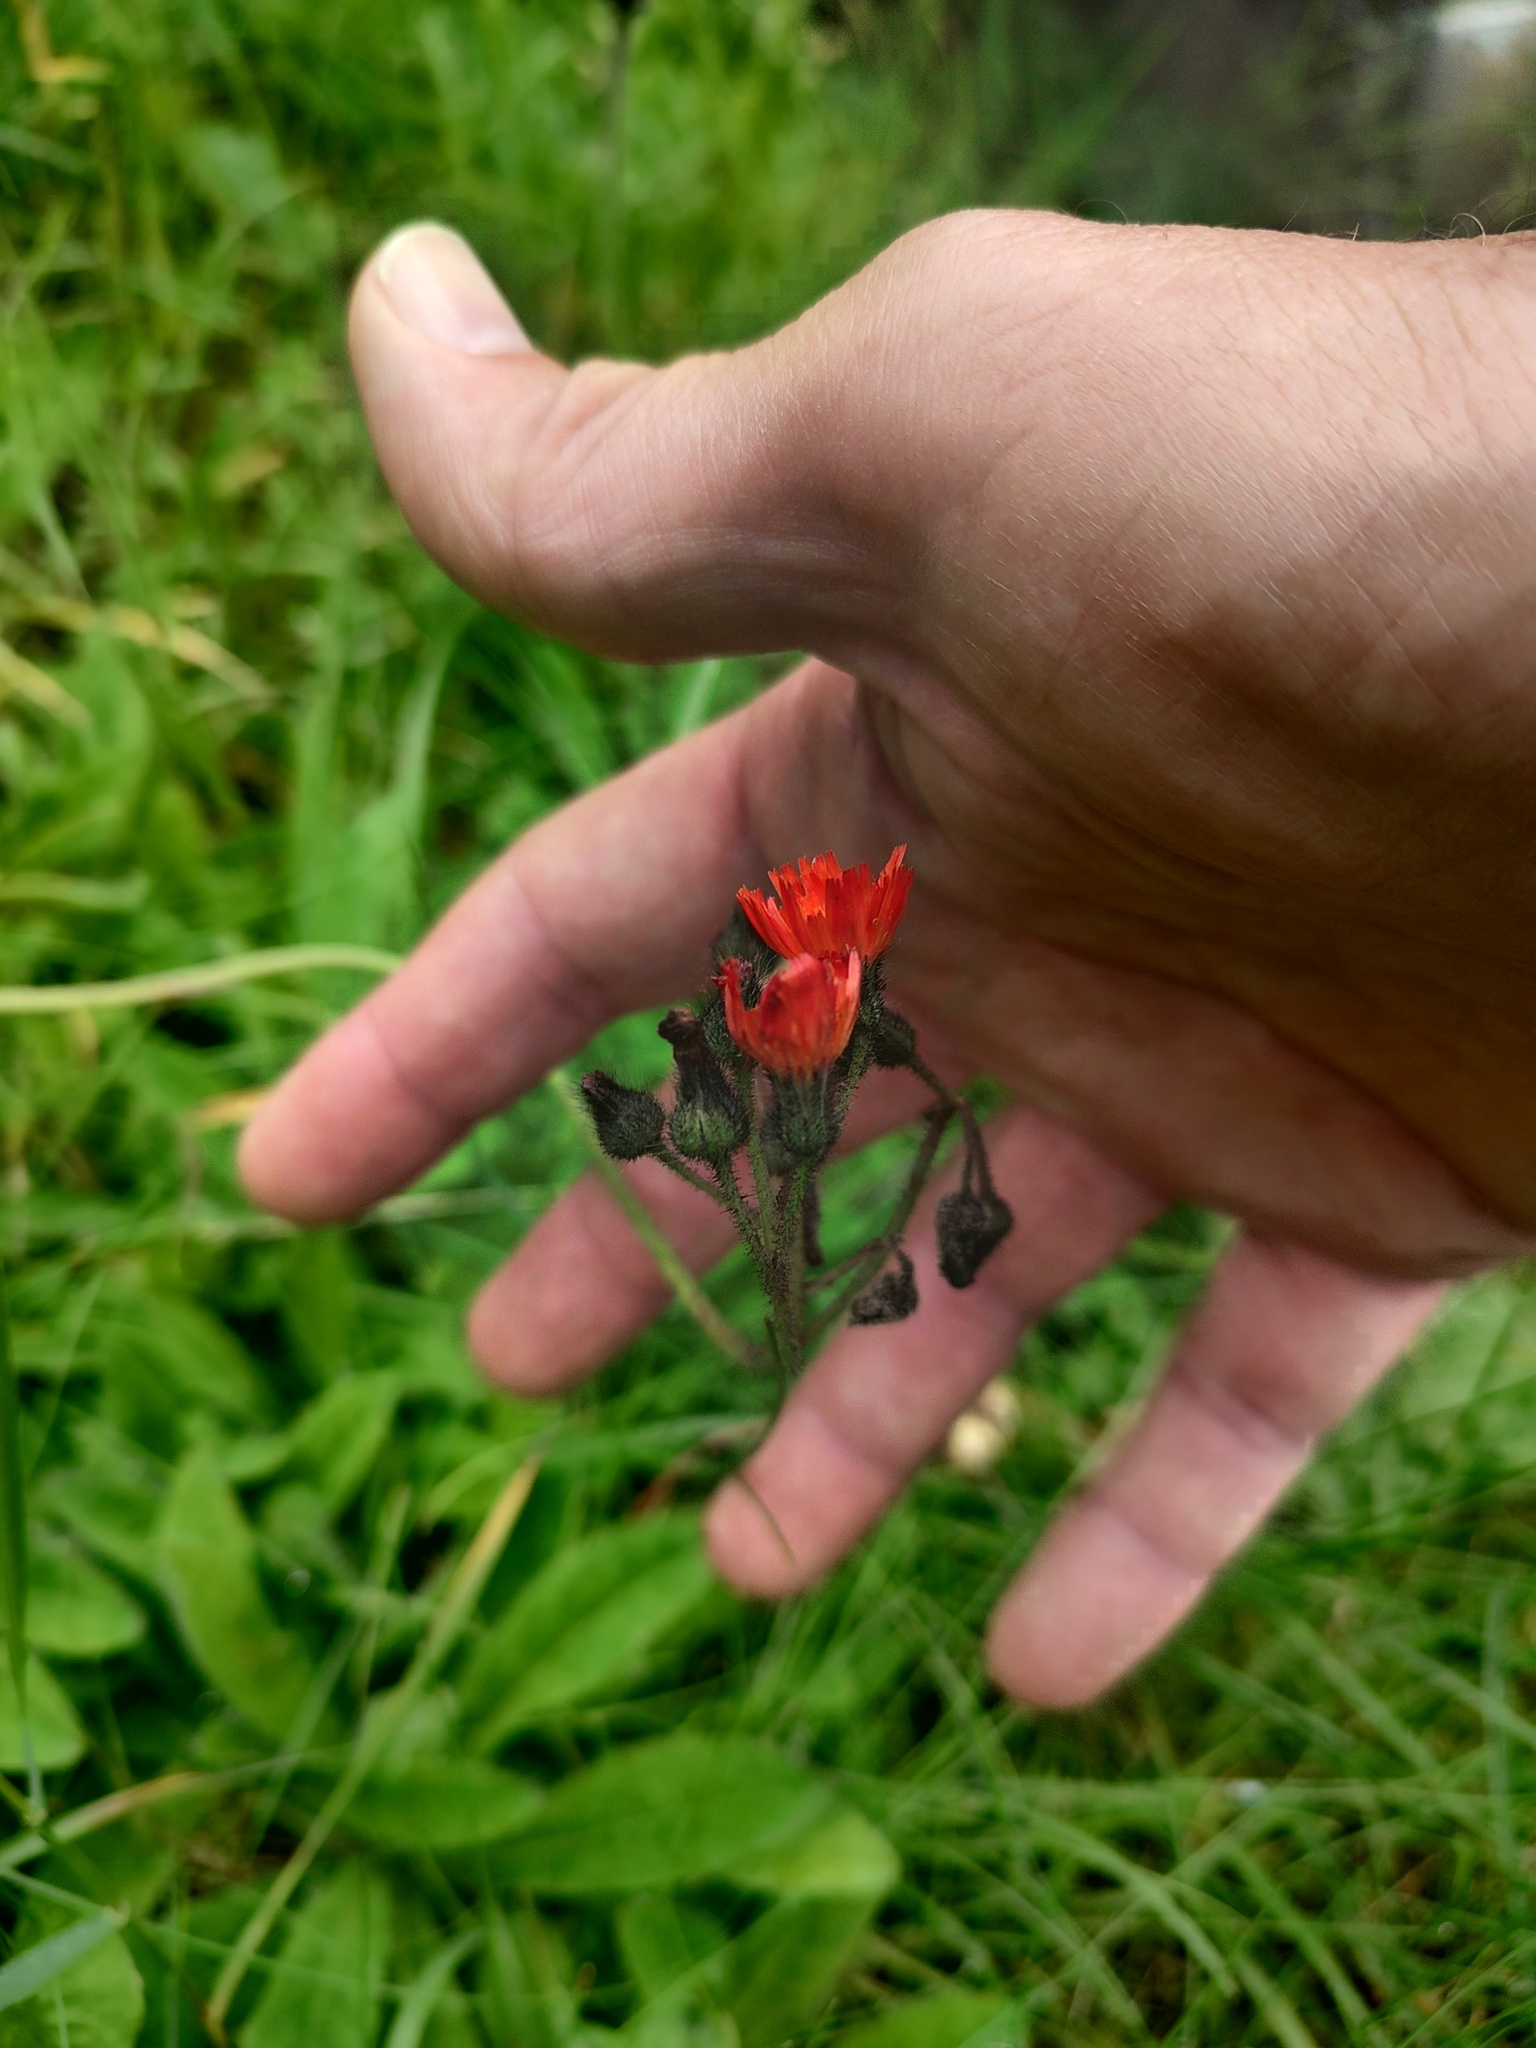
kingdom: Plantae
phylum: Tracheophyta
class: Magnoliopsida
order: Asterales
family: Asteraceae
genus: Pilosella
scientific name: Pilosella aurantiaca
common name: Fox-and-cubs
